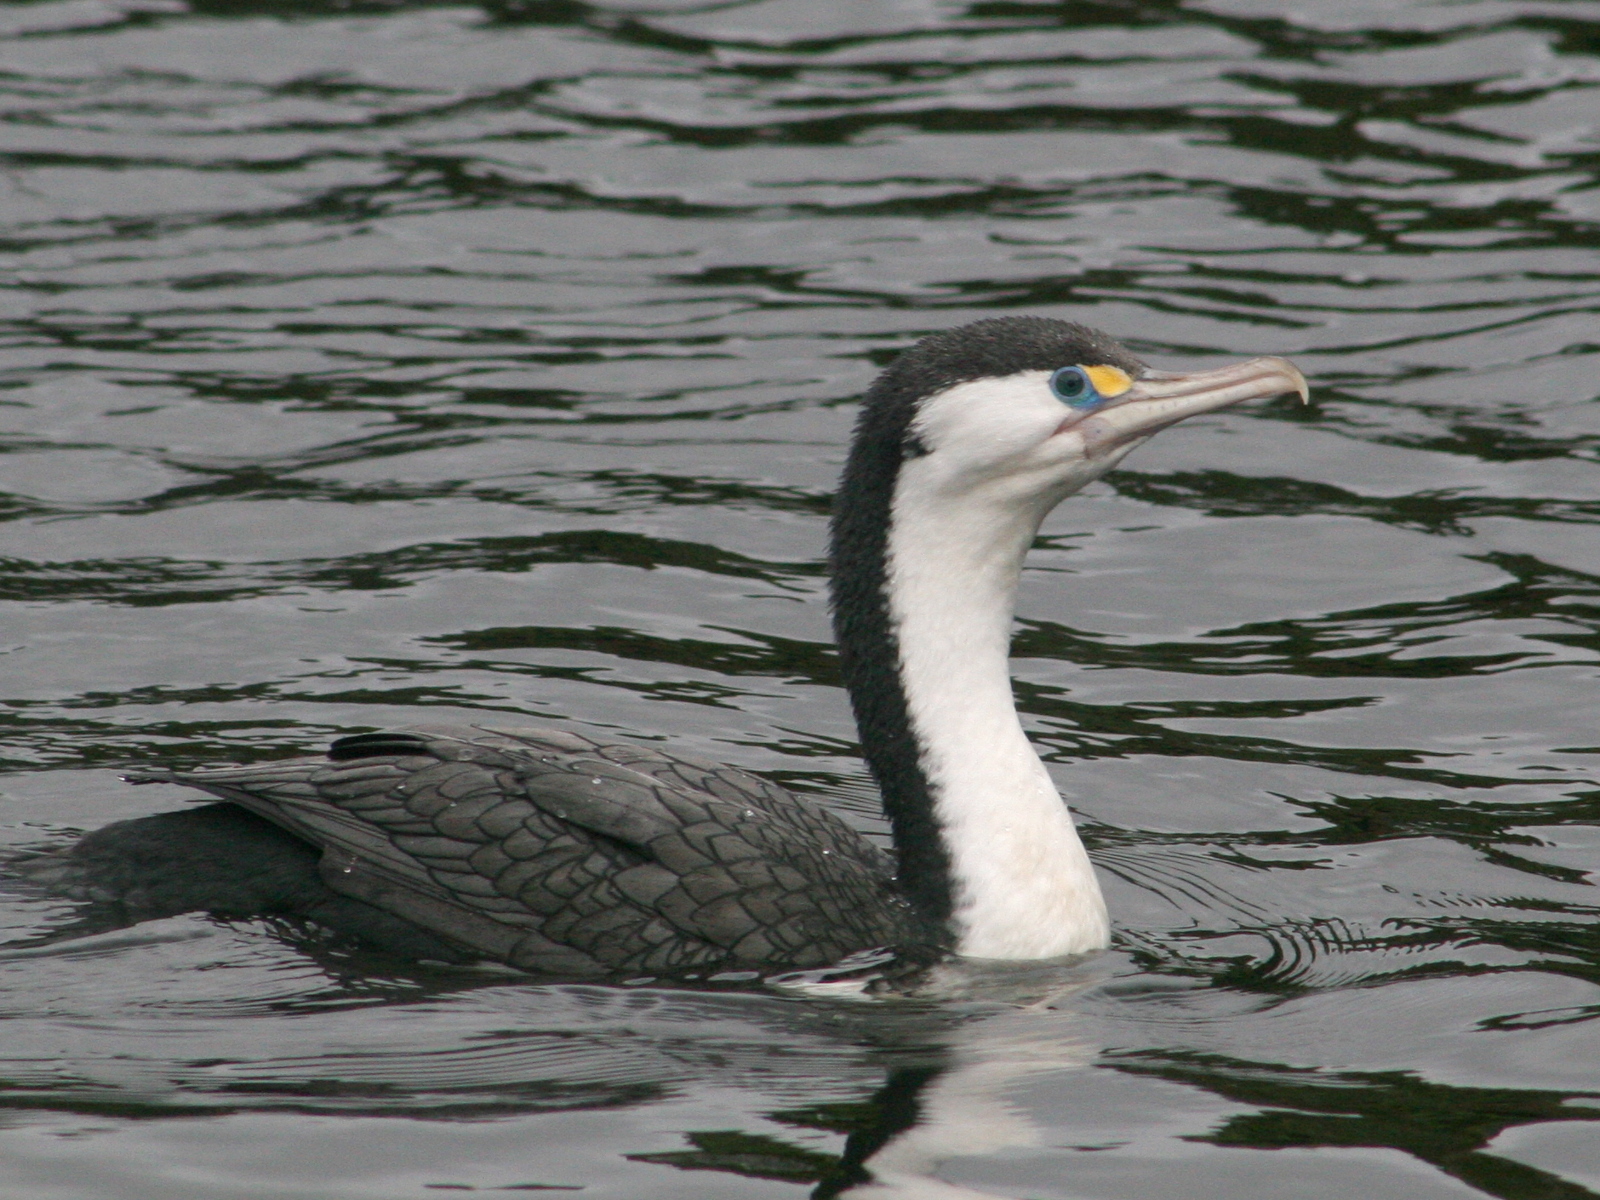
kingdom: Animalia
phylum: Chordata
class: Aves
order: Suliformes
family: Phalacrocoracidae
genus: Phalacrocorax
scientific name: Phalacrocorax varius
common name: Pied cormorant
